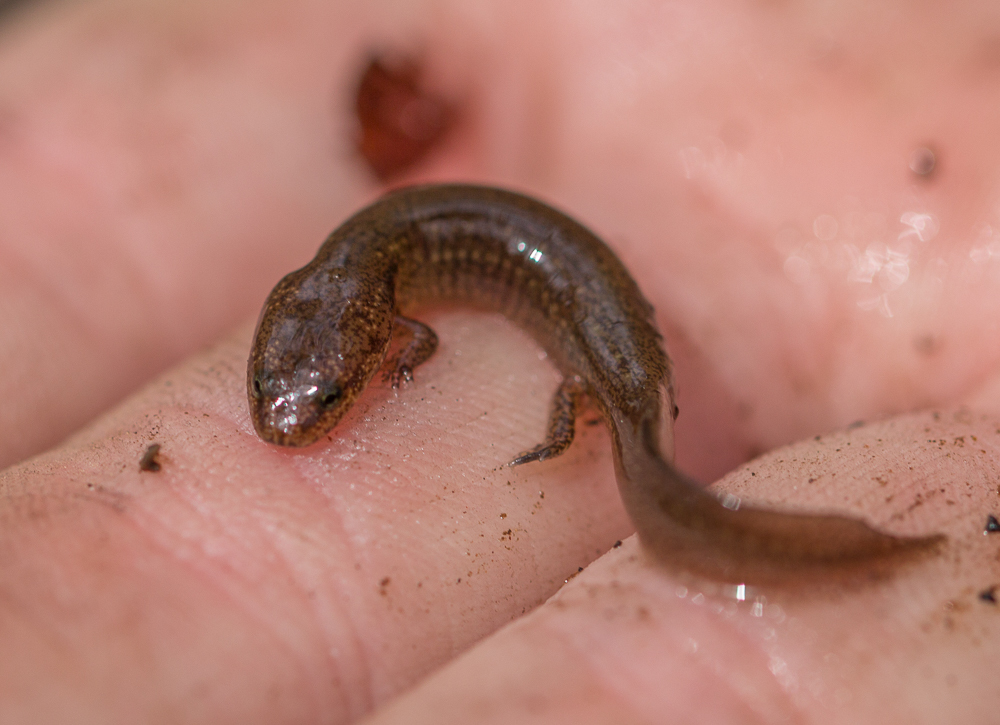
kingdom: Animalia
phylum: Chordata
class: Amphibia
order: Caudata
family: Plethodontidae
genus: Pseudotriton
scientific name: Pseudotriton ruber
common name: Red salamander
